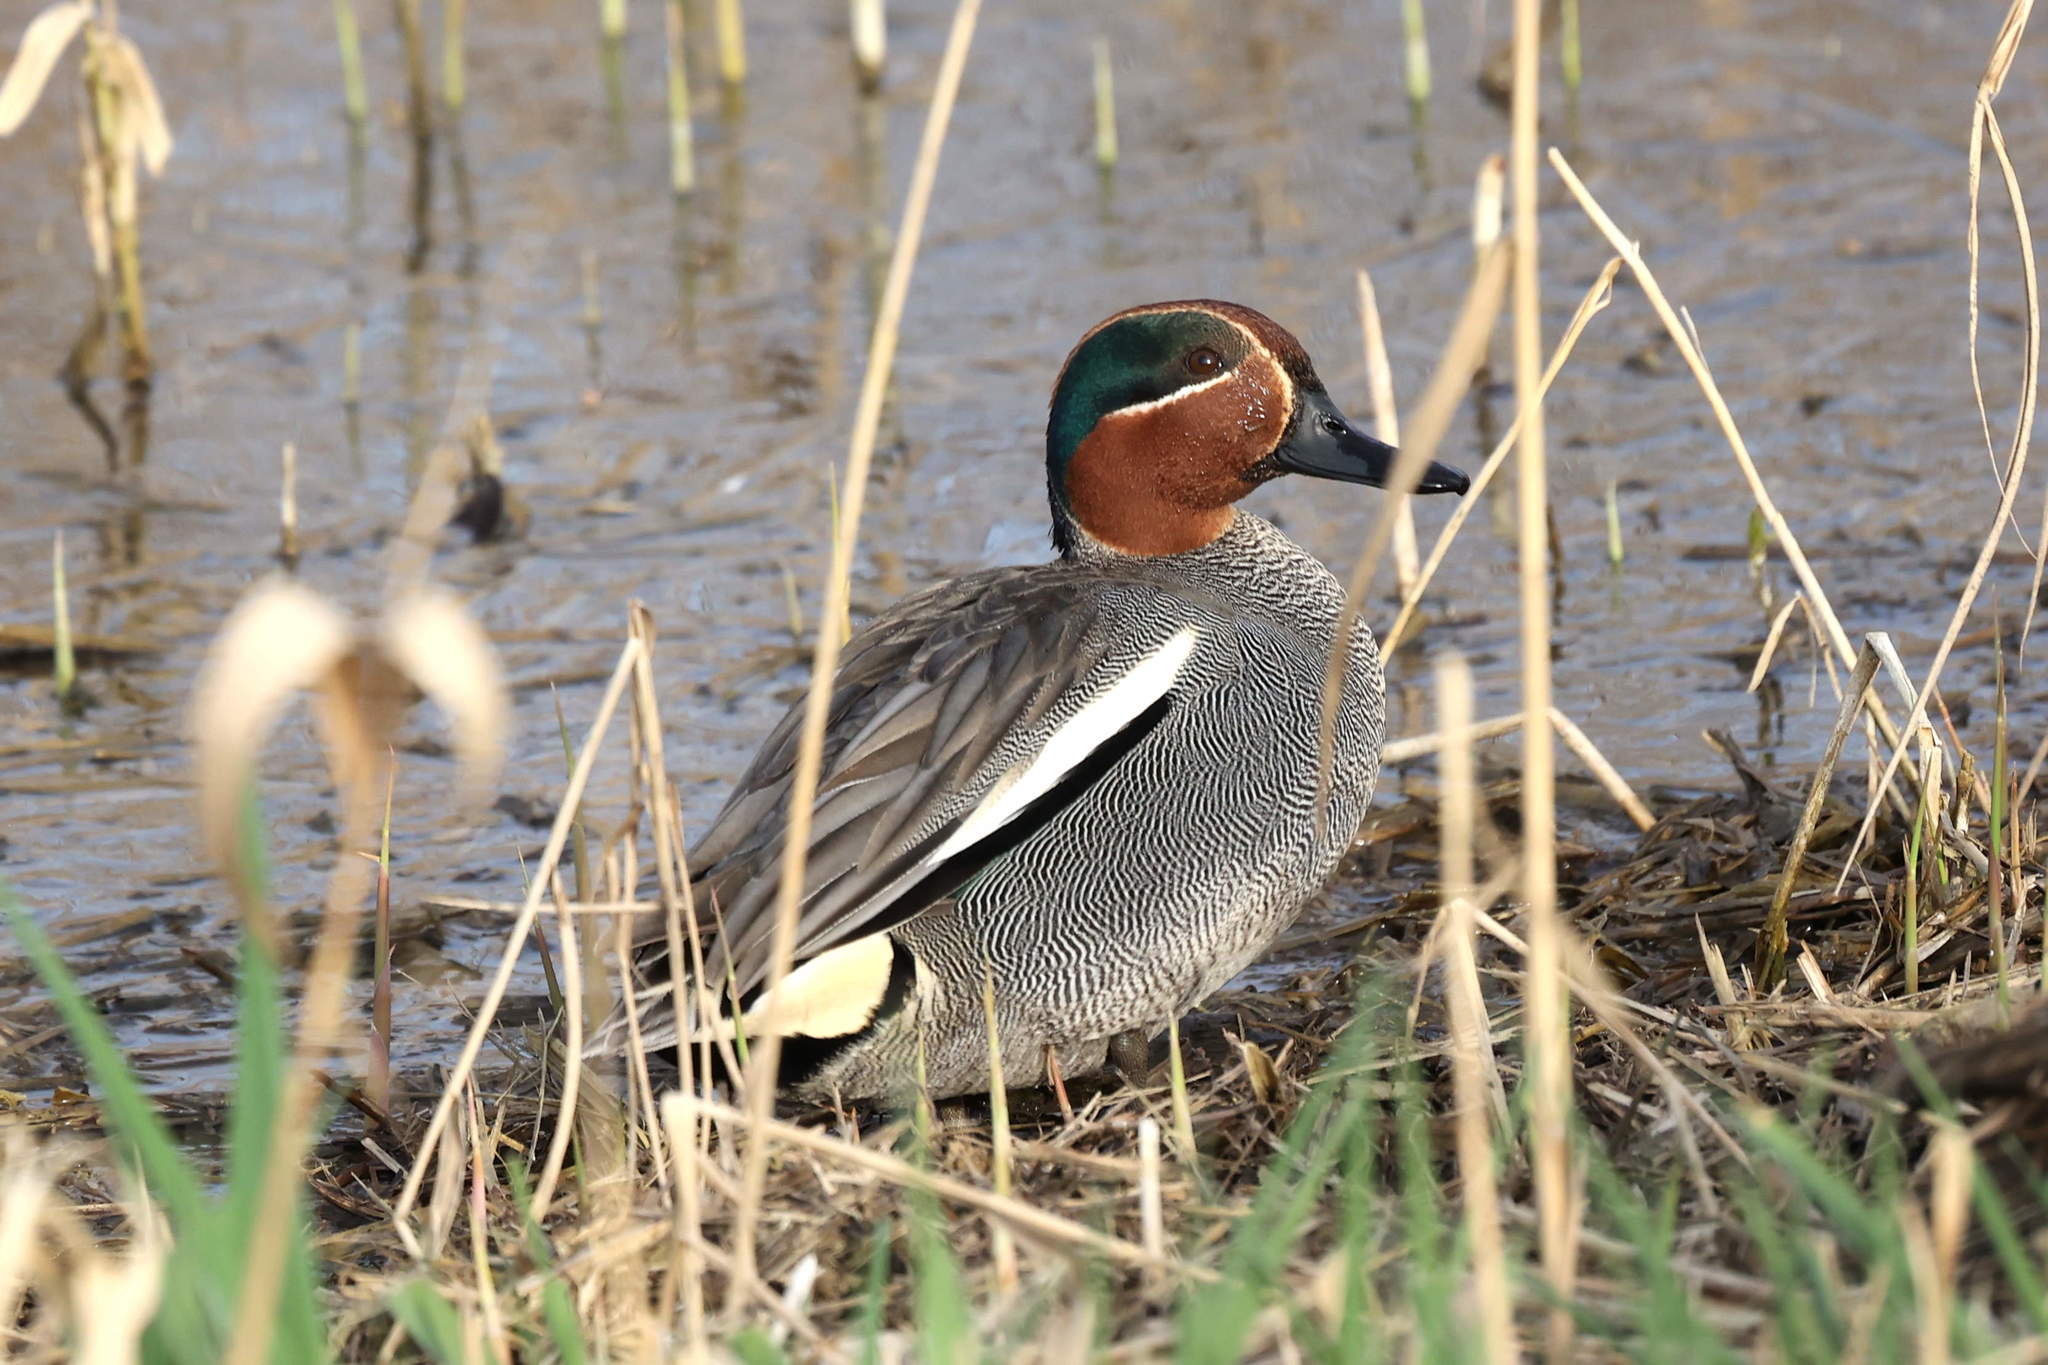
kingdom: Animalia
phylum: Chordata
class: Aves
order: Anseriformes
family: Anatidae
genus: Anas
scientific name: Anas crecca
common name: Eurasian teal
